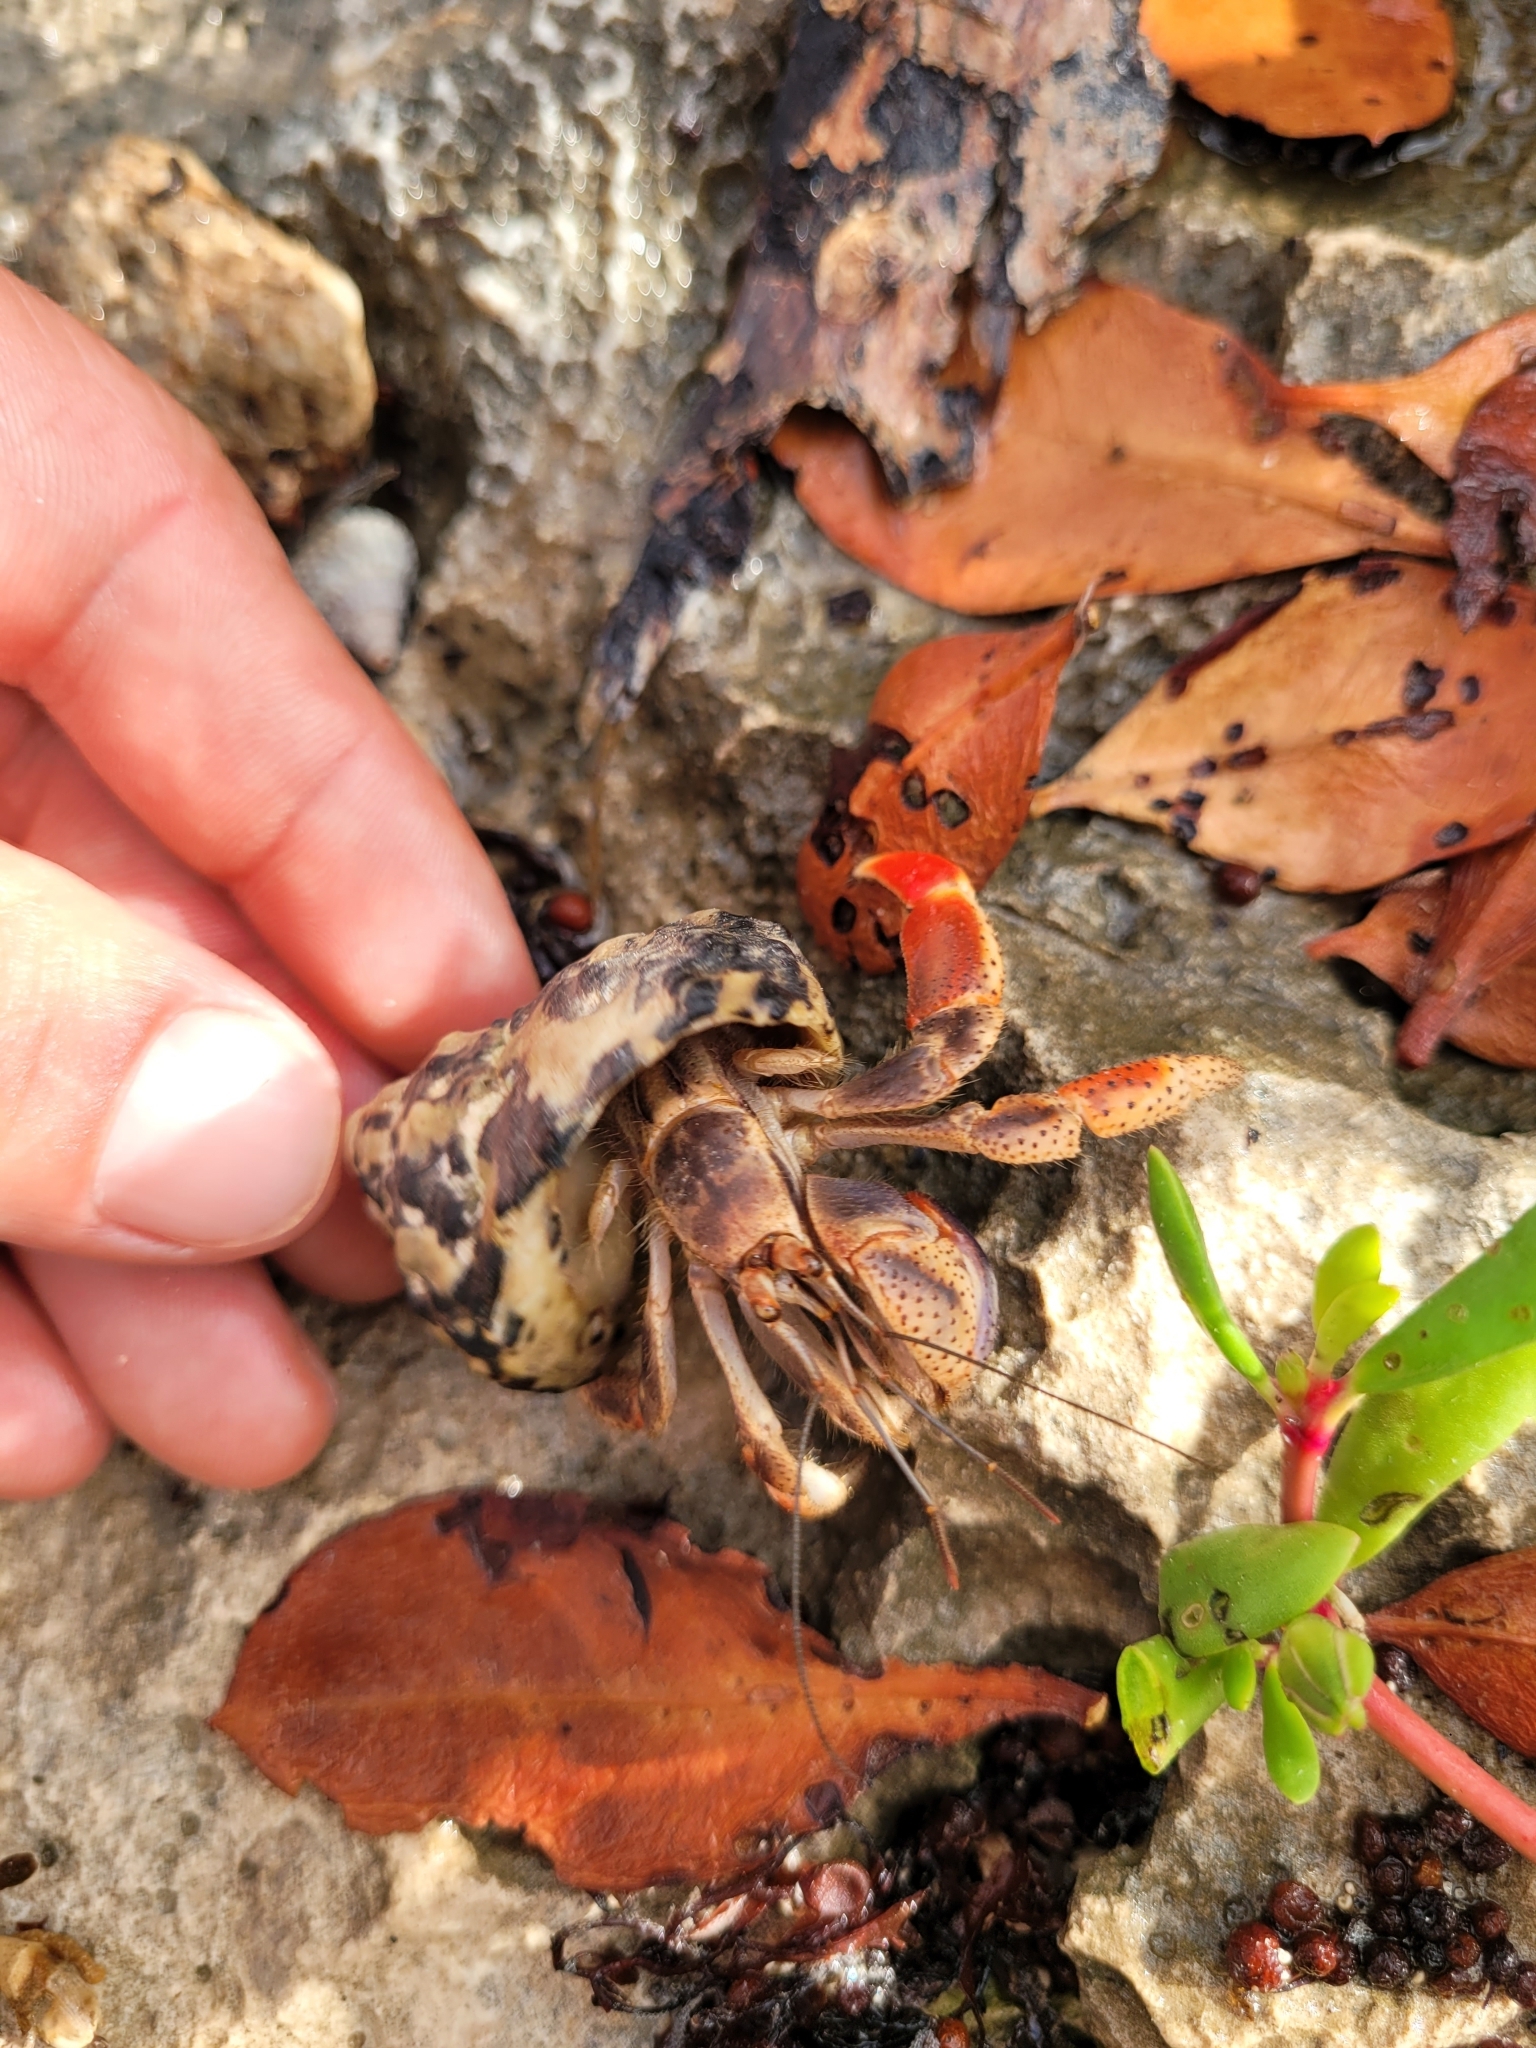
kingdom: Animalia
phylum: Arthropoda
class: Malacostraca
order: Decapoda
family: Coenobitidae
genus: Coenobita
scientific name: Coenobita clypeatus
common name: Caribbean hermit crab
